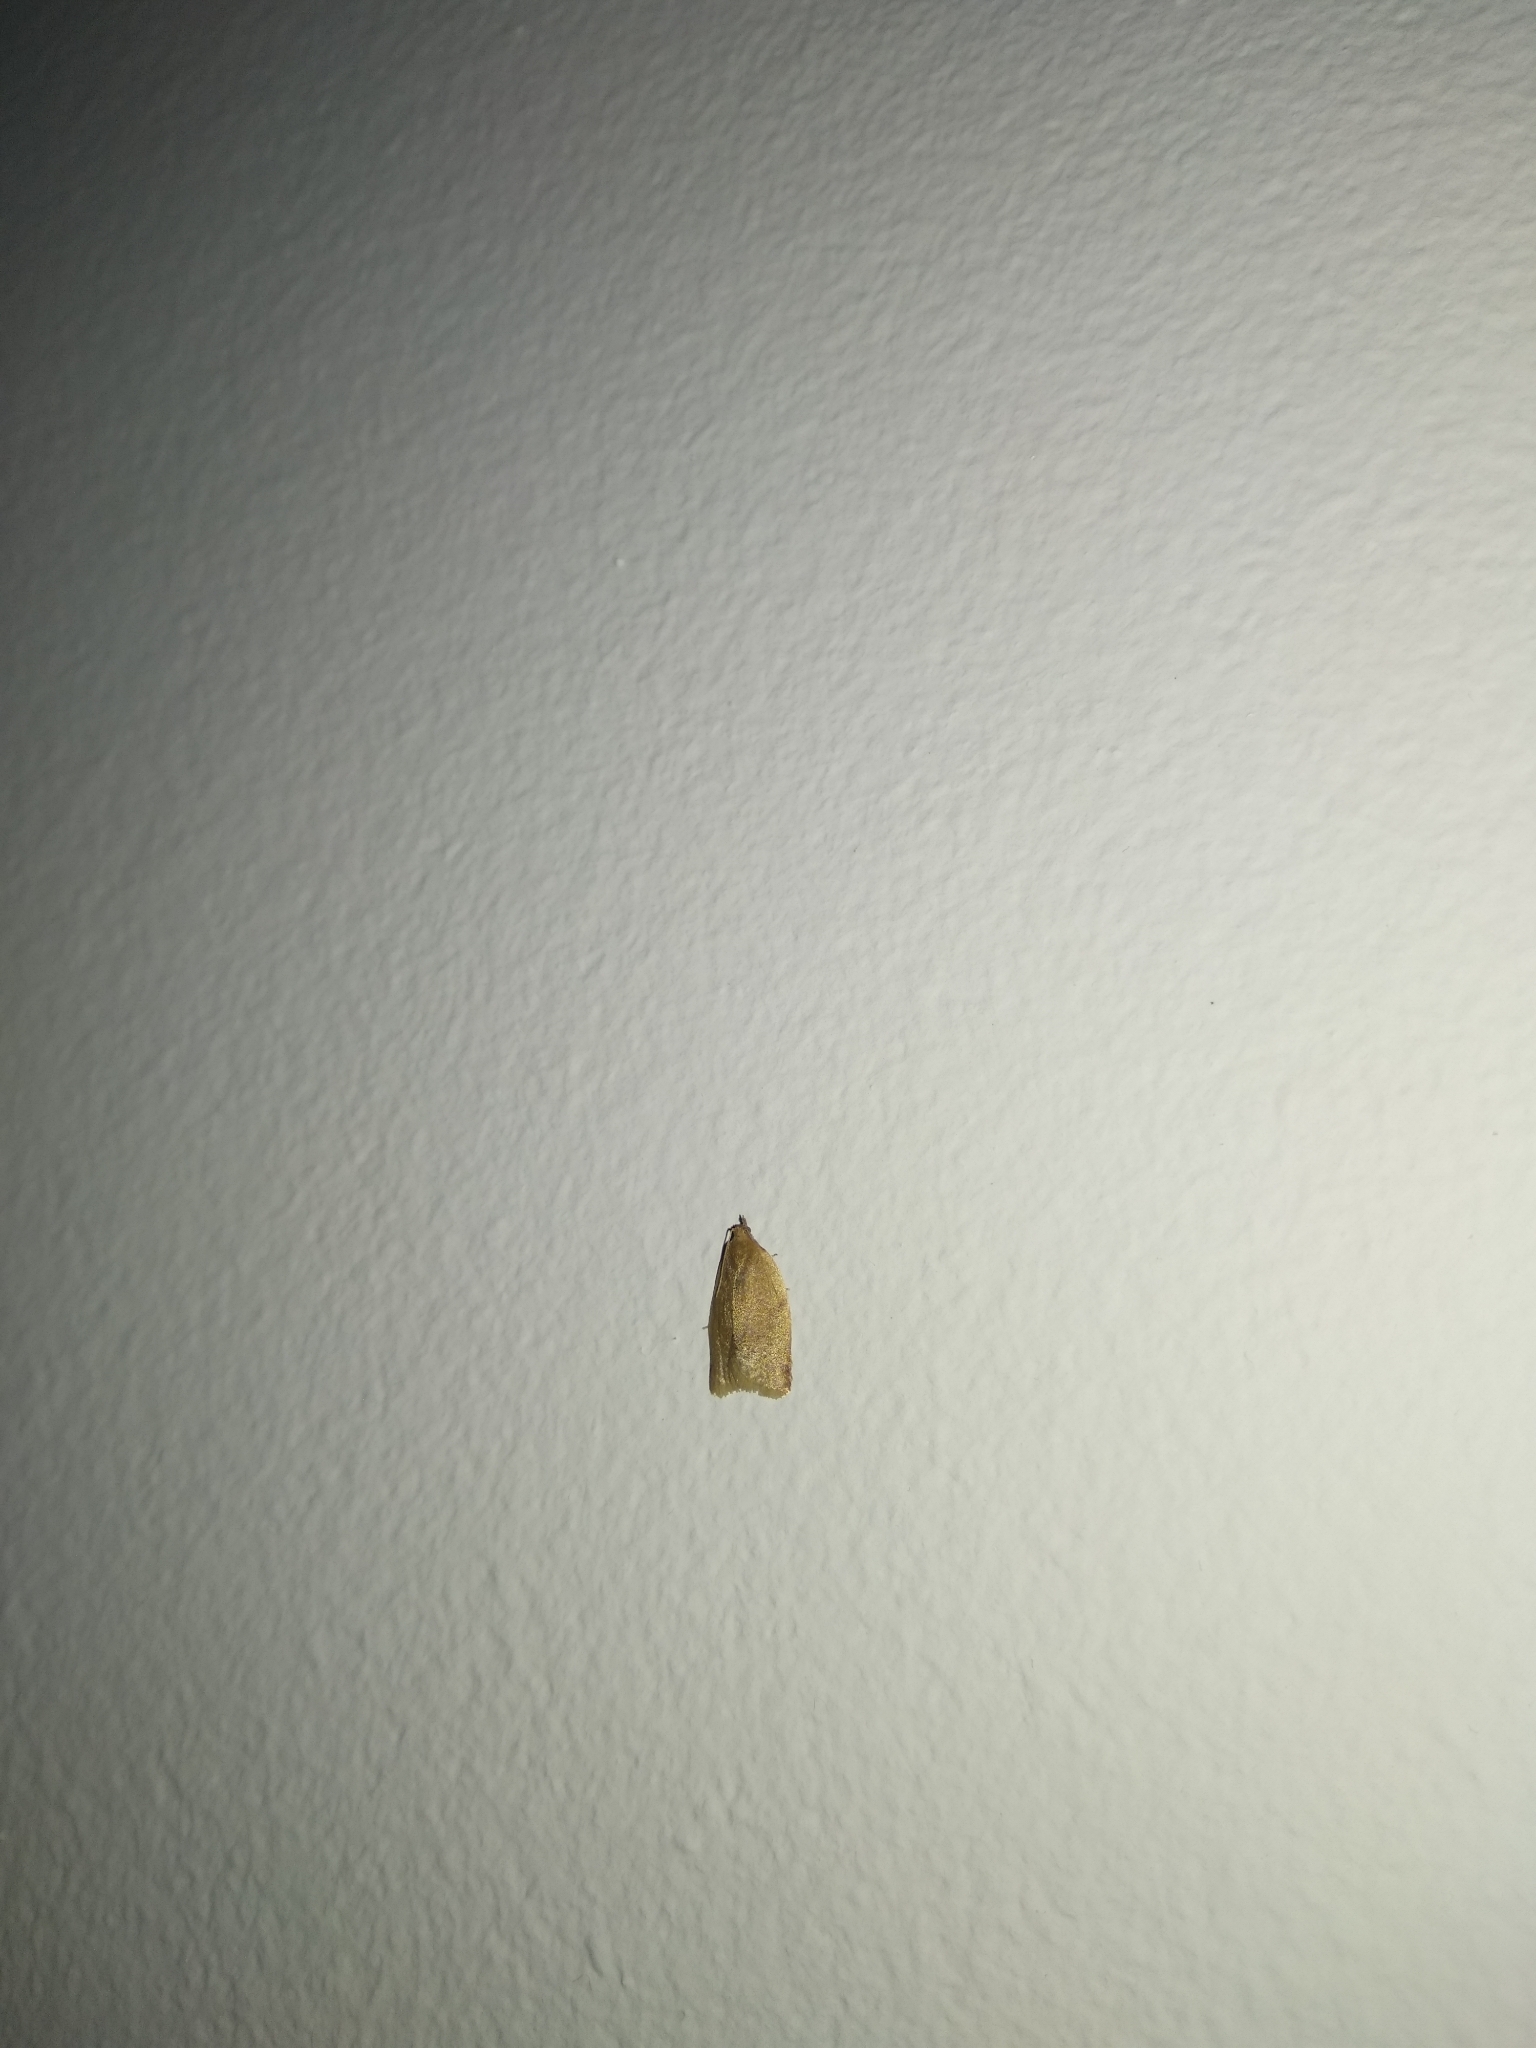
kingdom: Animalia
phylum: Arthropoda
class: Insecta
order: Lepidoptera
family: Tortricidae
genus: Clepsis
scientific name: Clepsis coriacana
